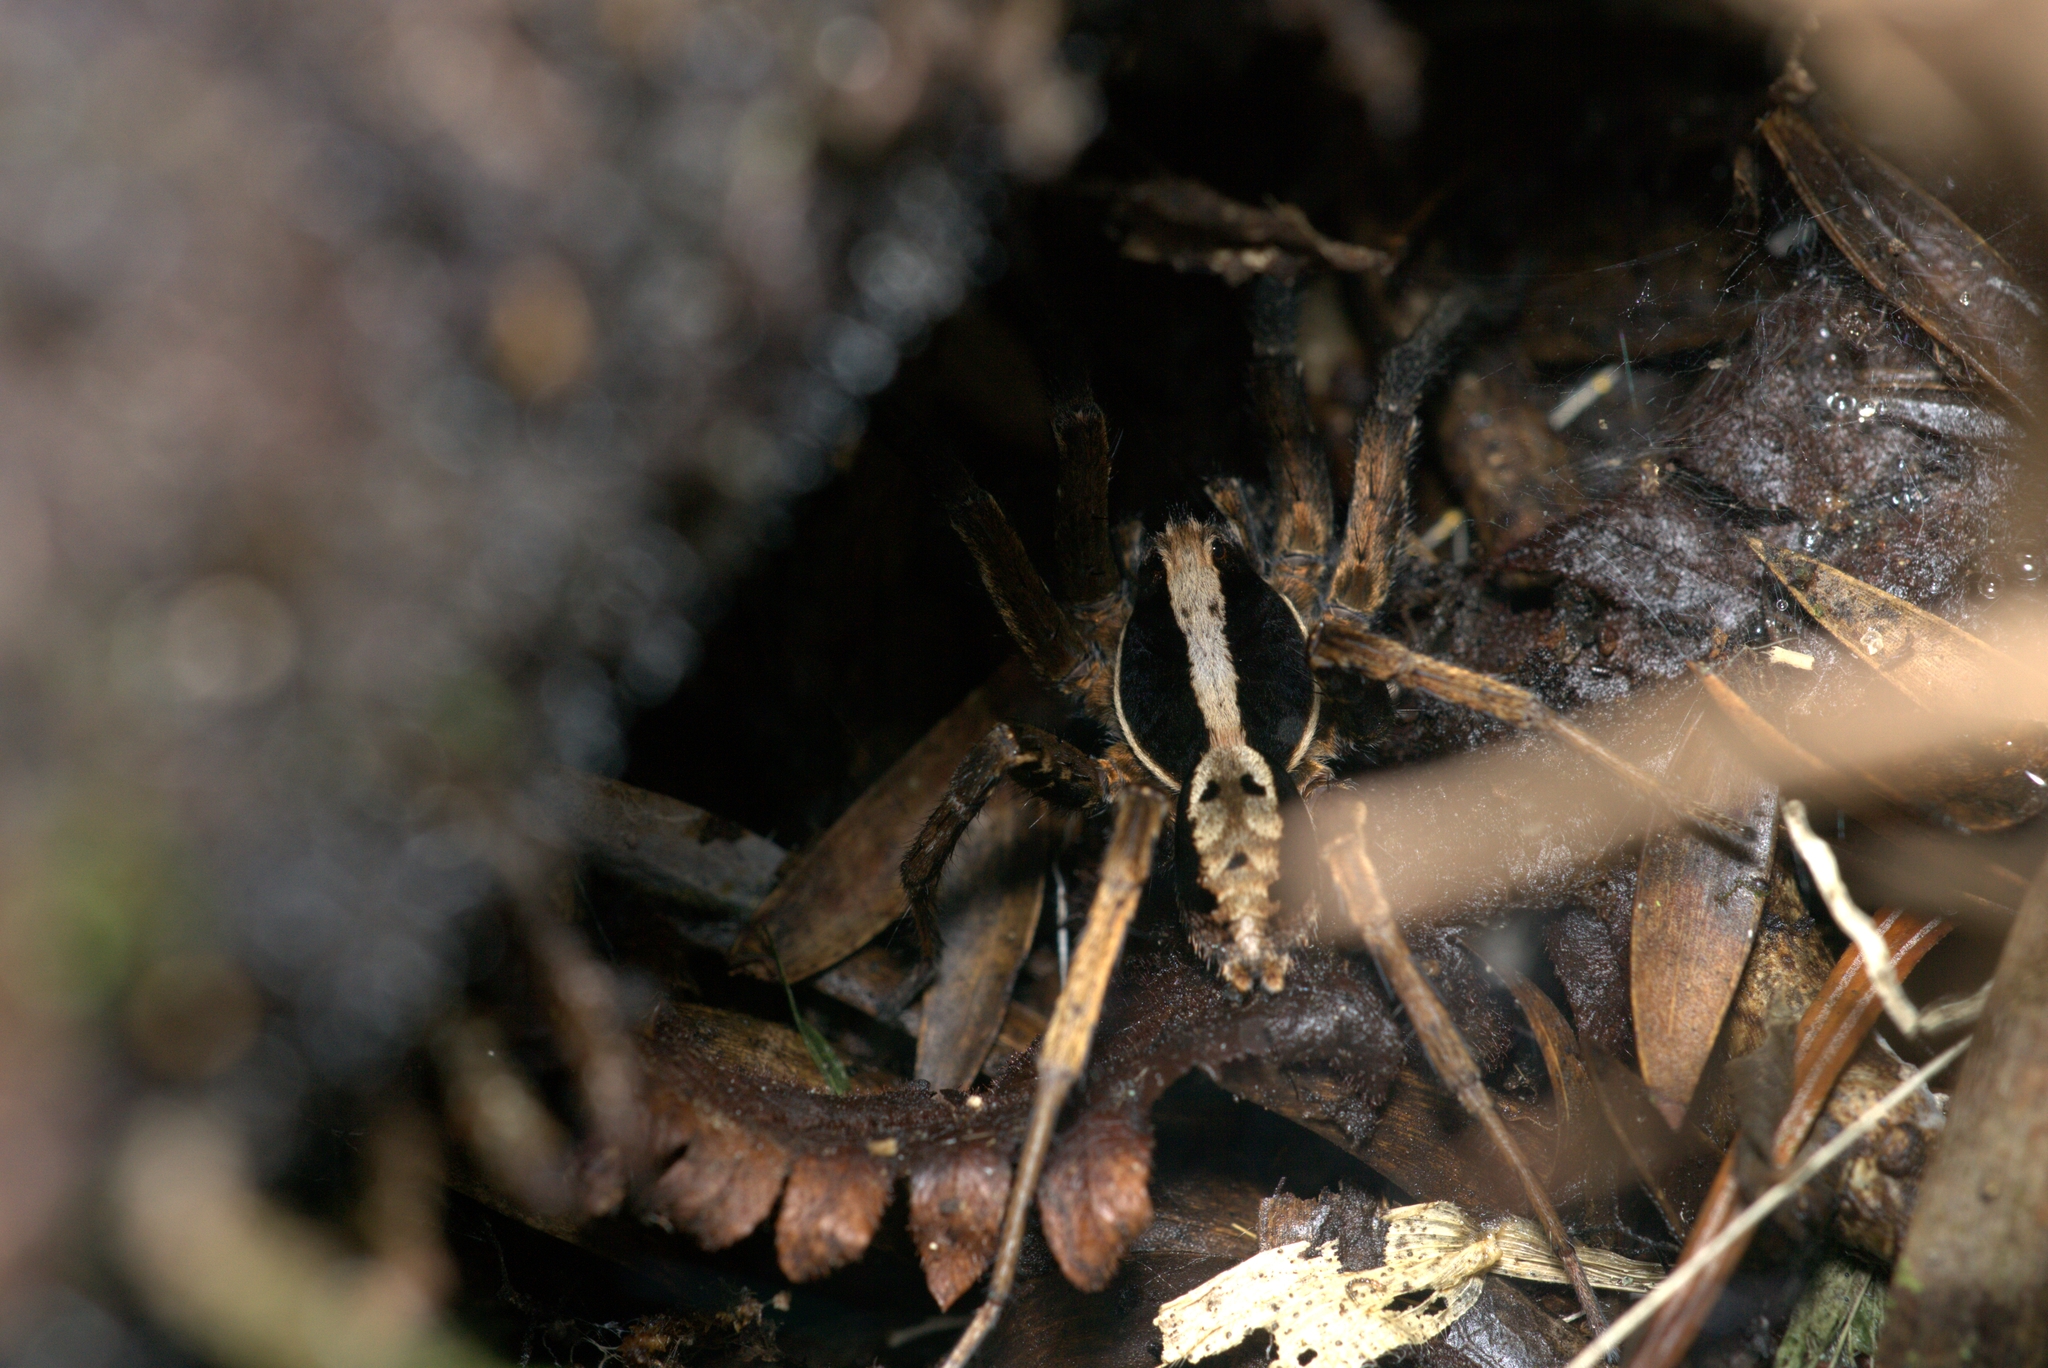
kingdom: Animalia
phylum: Arthropoda
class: Arachnida
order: Araneae
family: Lycosidae
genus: Hogna
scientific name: Hogna gumia
